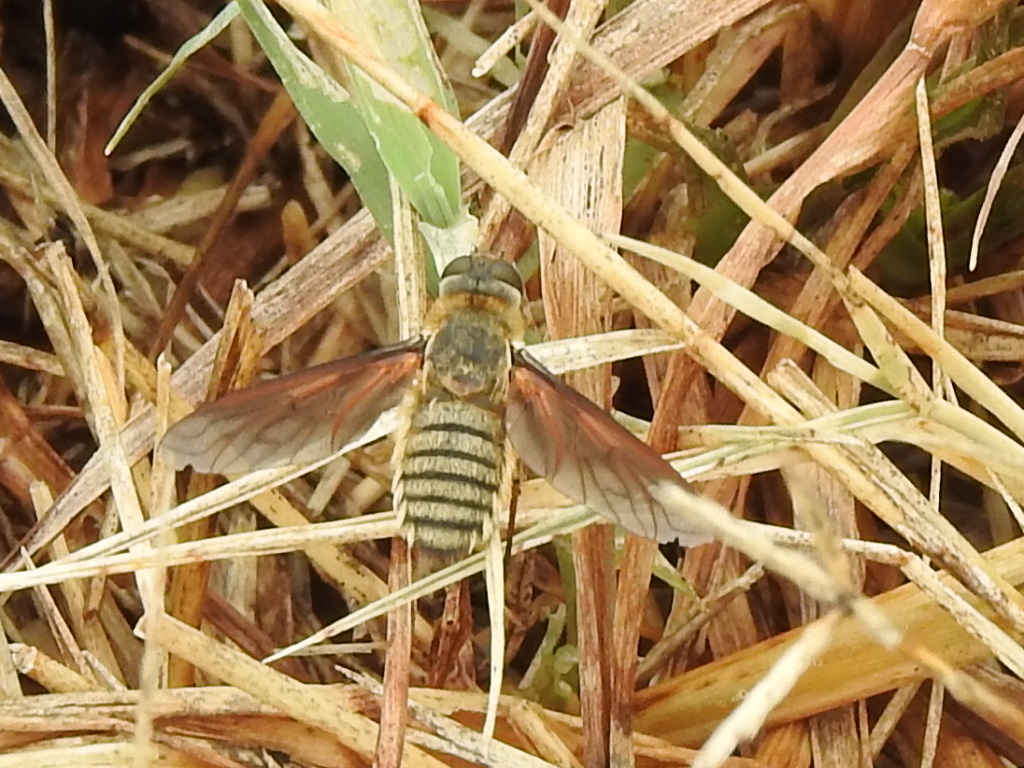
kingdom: Animalia
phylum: Arthropoda
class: Insecta
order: Diptera
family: Bombyliidae
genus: Poecilanthrax
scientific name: Poecilanthrax lucifer
